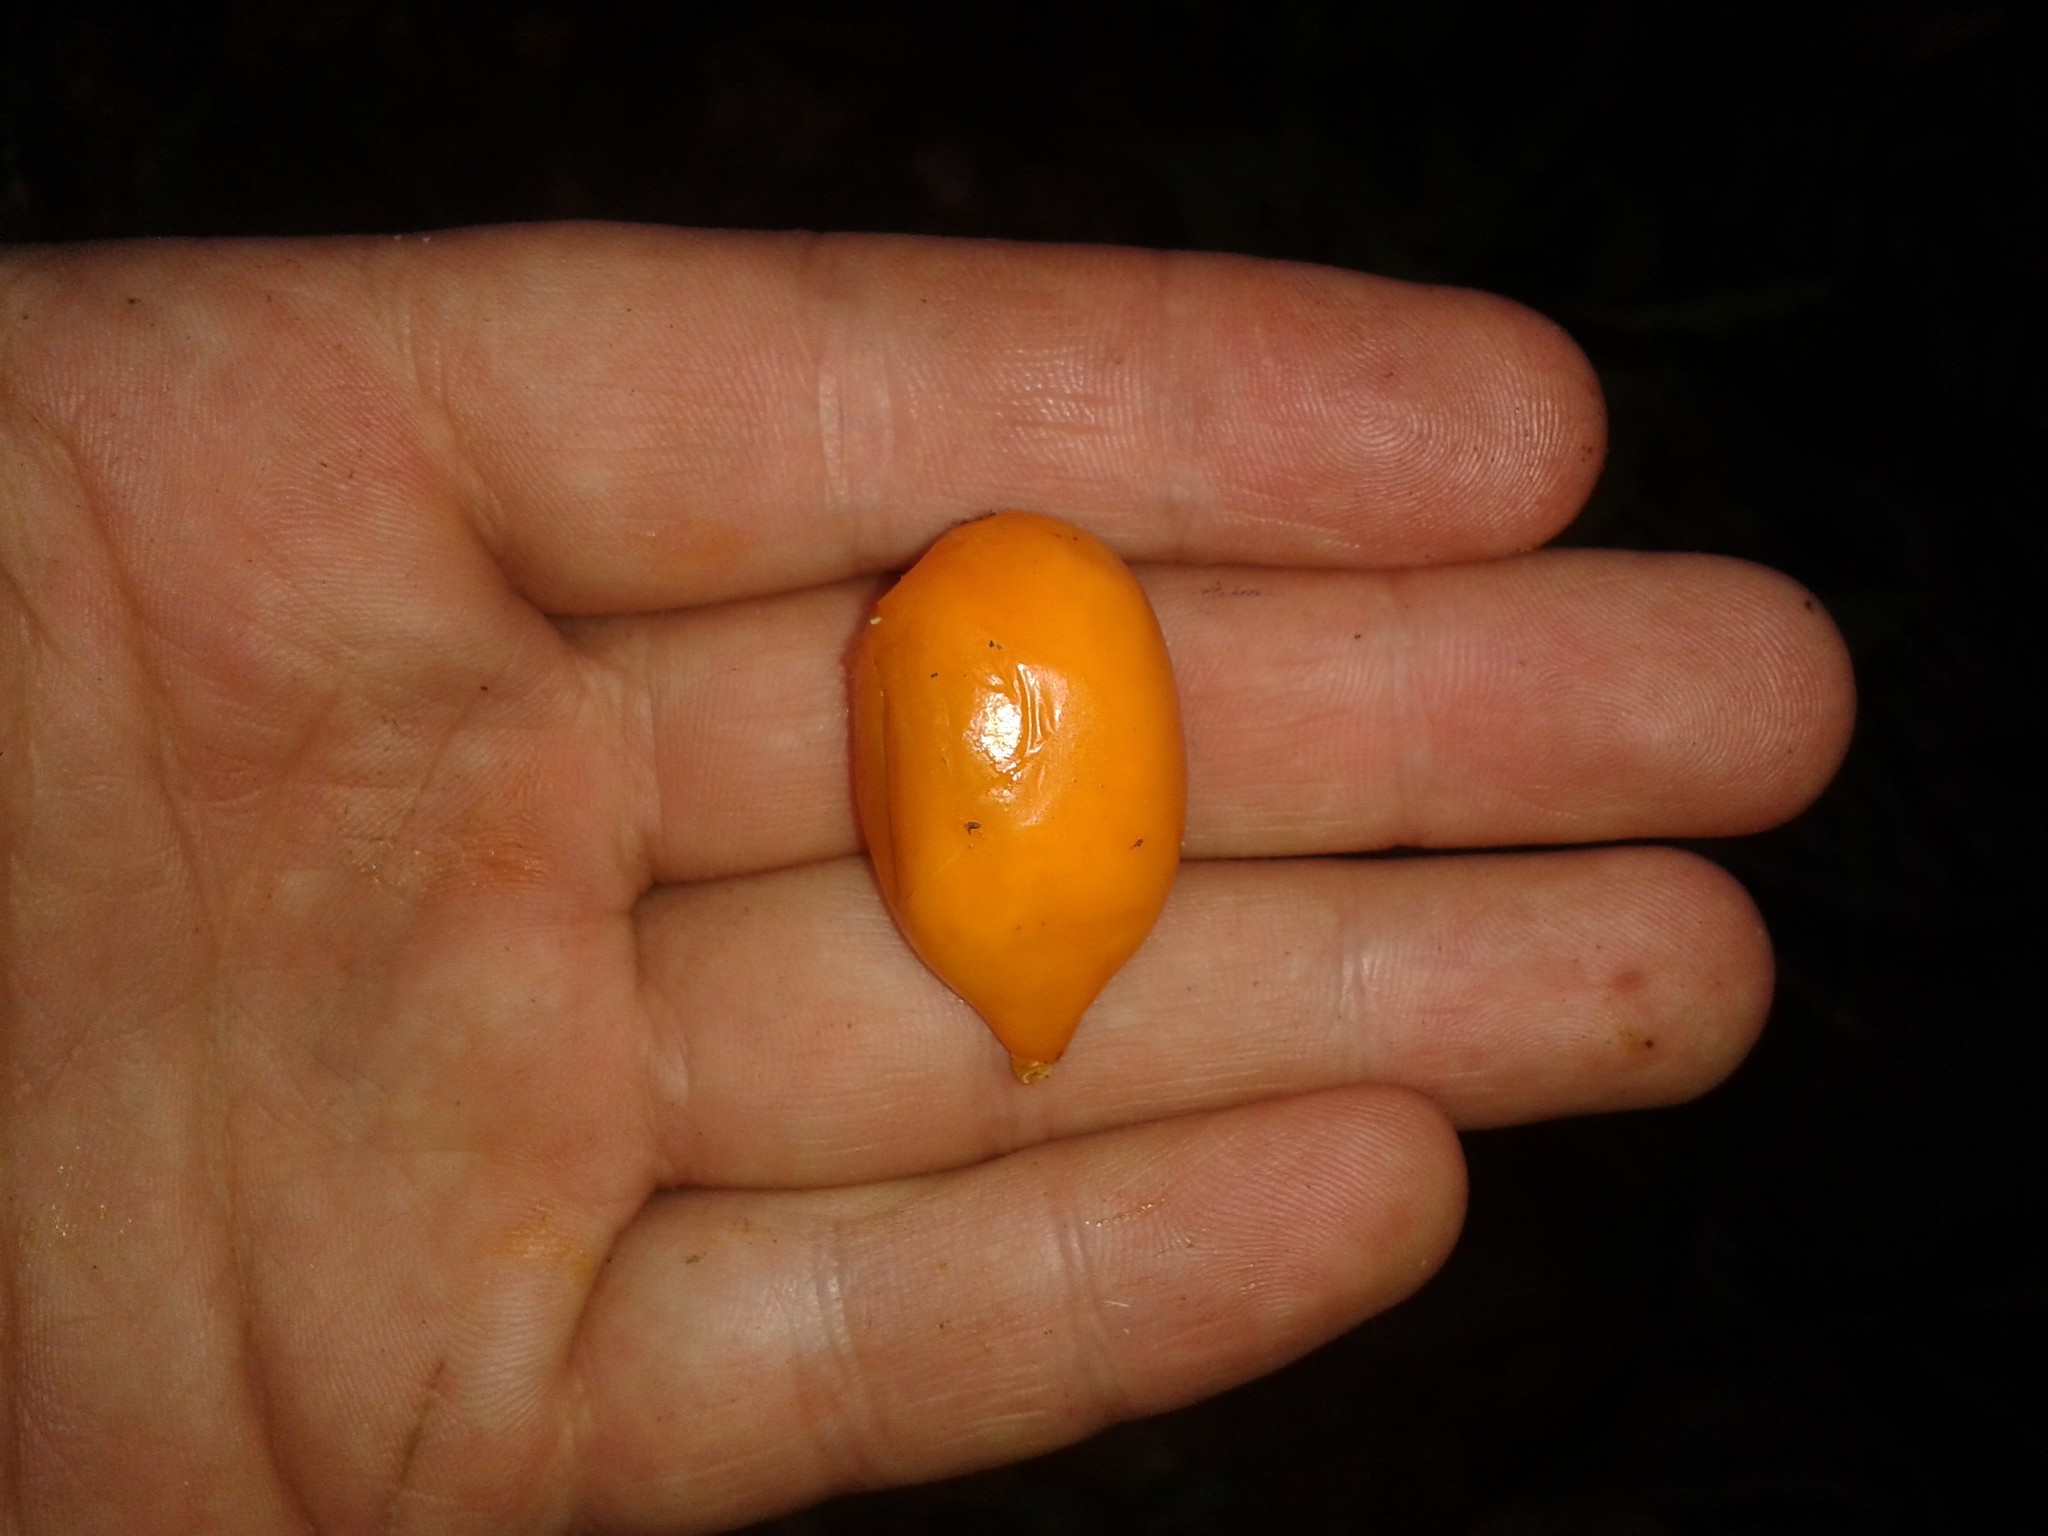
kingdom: Plantae
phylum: Tracheophyta
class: Magnoliopsida
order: Malpighiales
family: Clusiaceae
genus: Garcinia
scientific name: Garcinia cuneata
